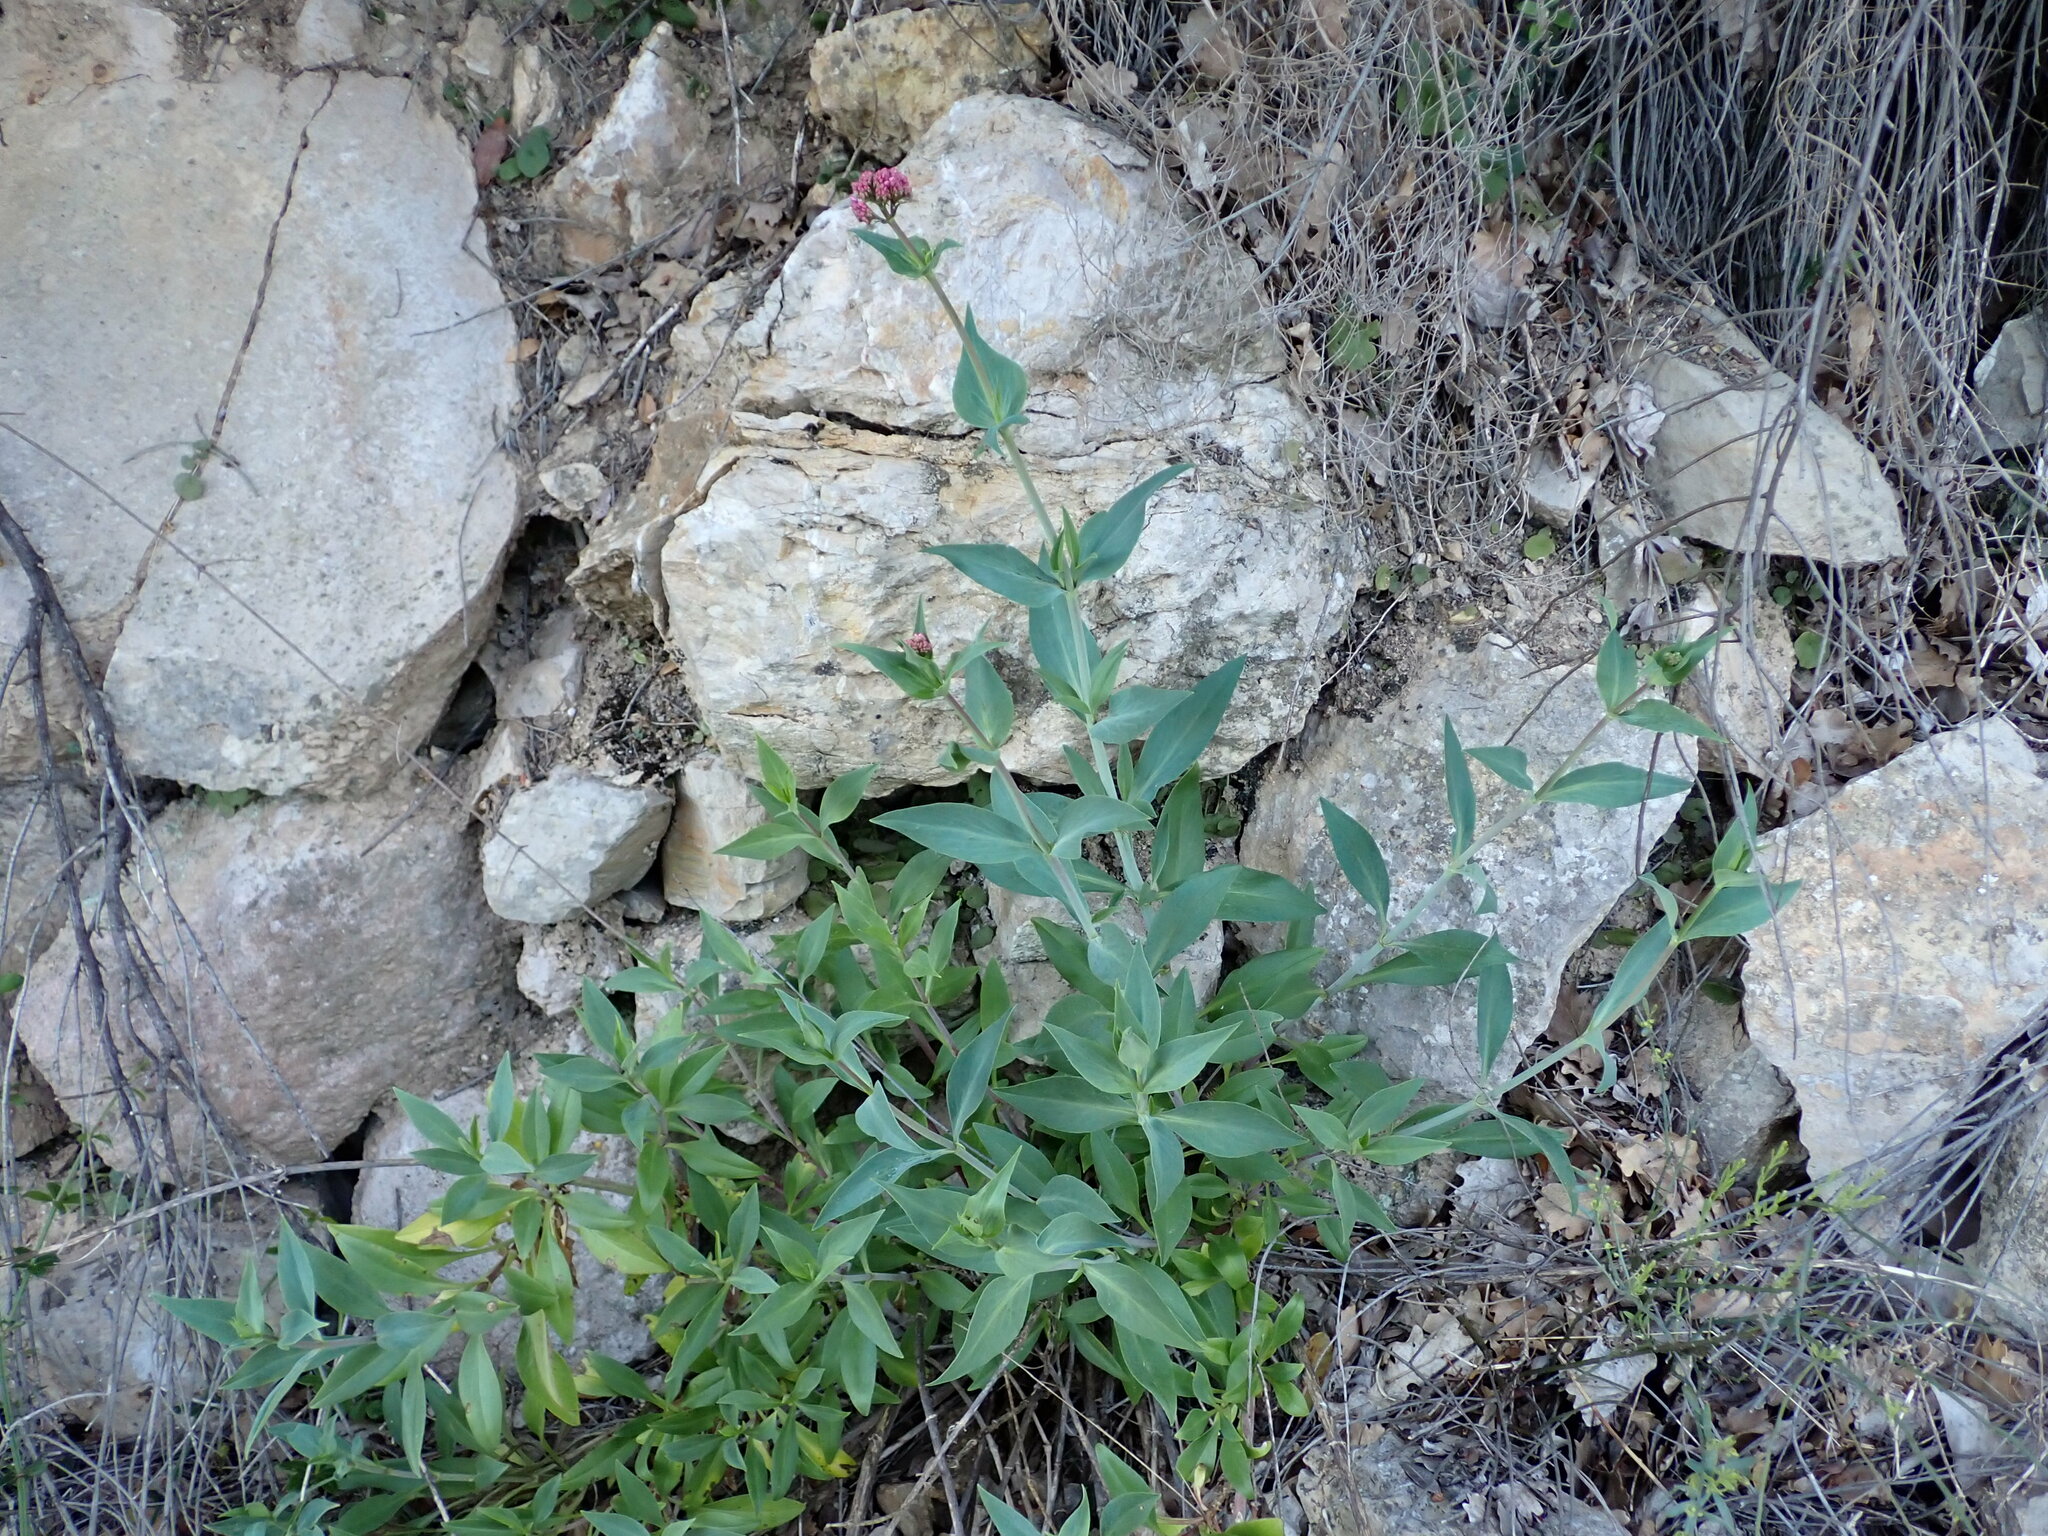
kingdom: Plantae
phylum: Tracheophyta
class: Magnoliopsida
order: Dipsacales
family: Caprifoliaceae
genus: Centranthus
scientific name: Centranthus ruber
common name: Red valerian
